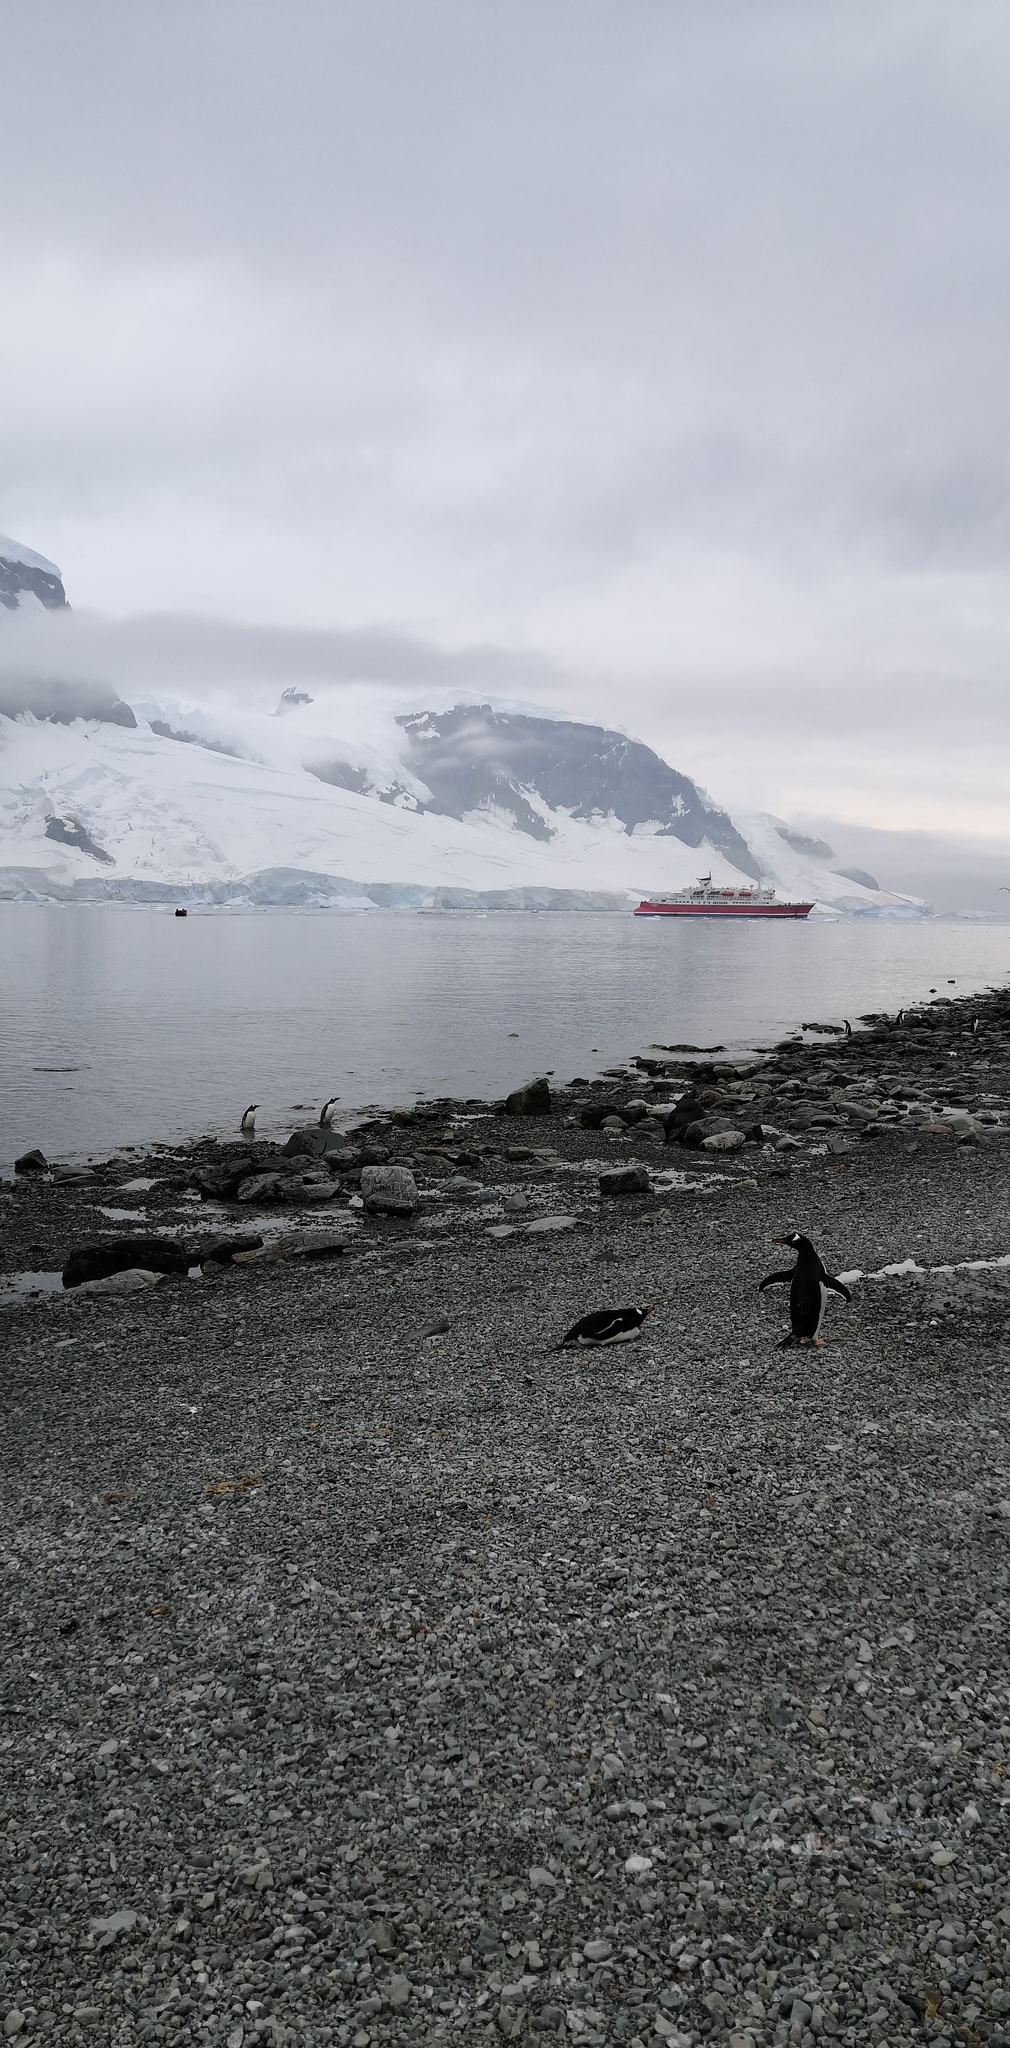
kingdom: Animalia
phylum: Chordata
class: Aves
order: Sphenisciformes
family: Spheniscidae
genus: Pygoscelis
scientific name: Pygoscelis papua
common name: Gentoo penguin
